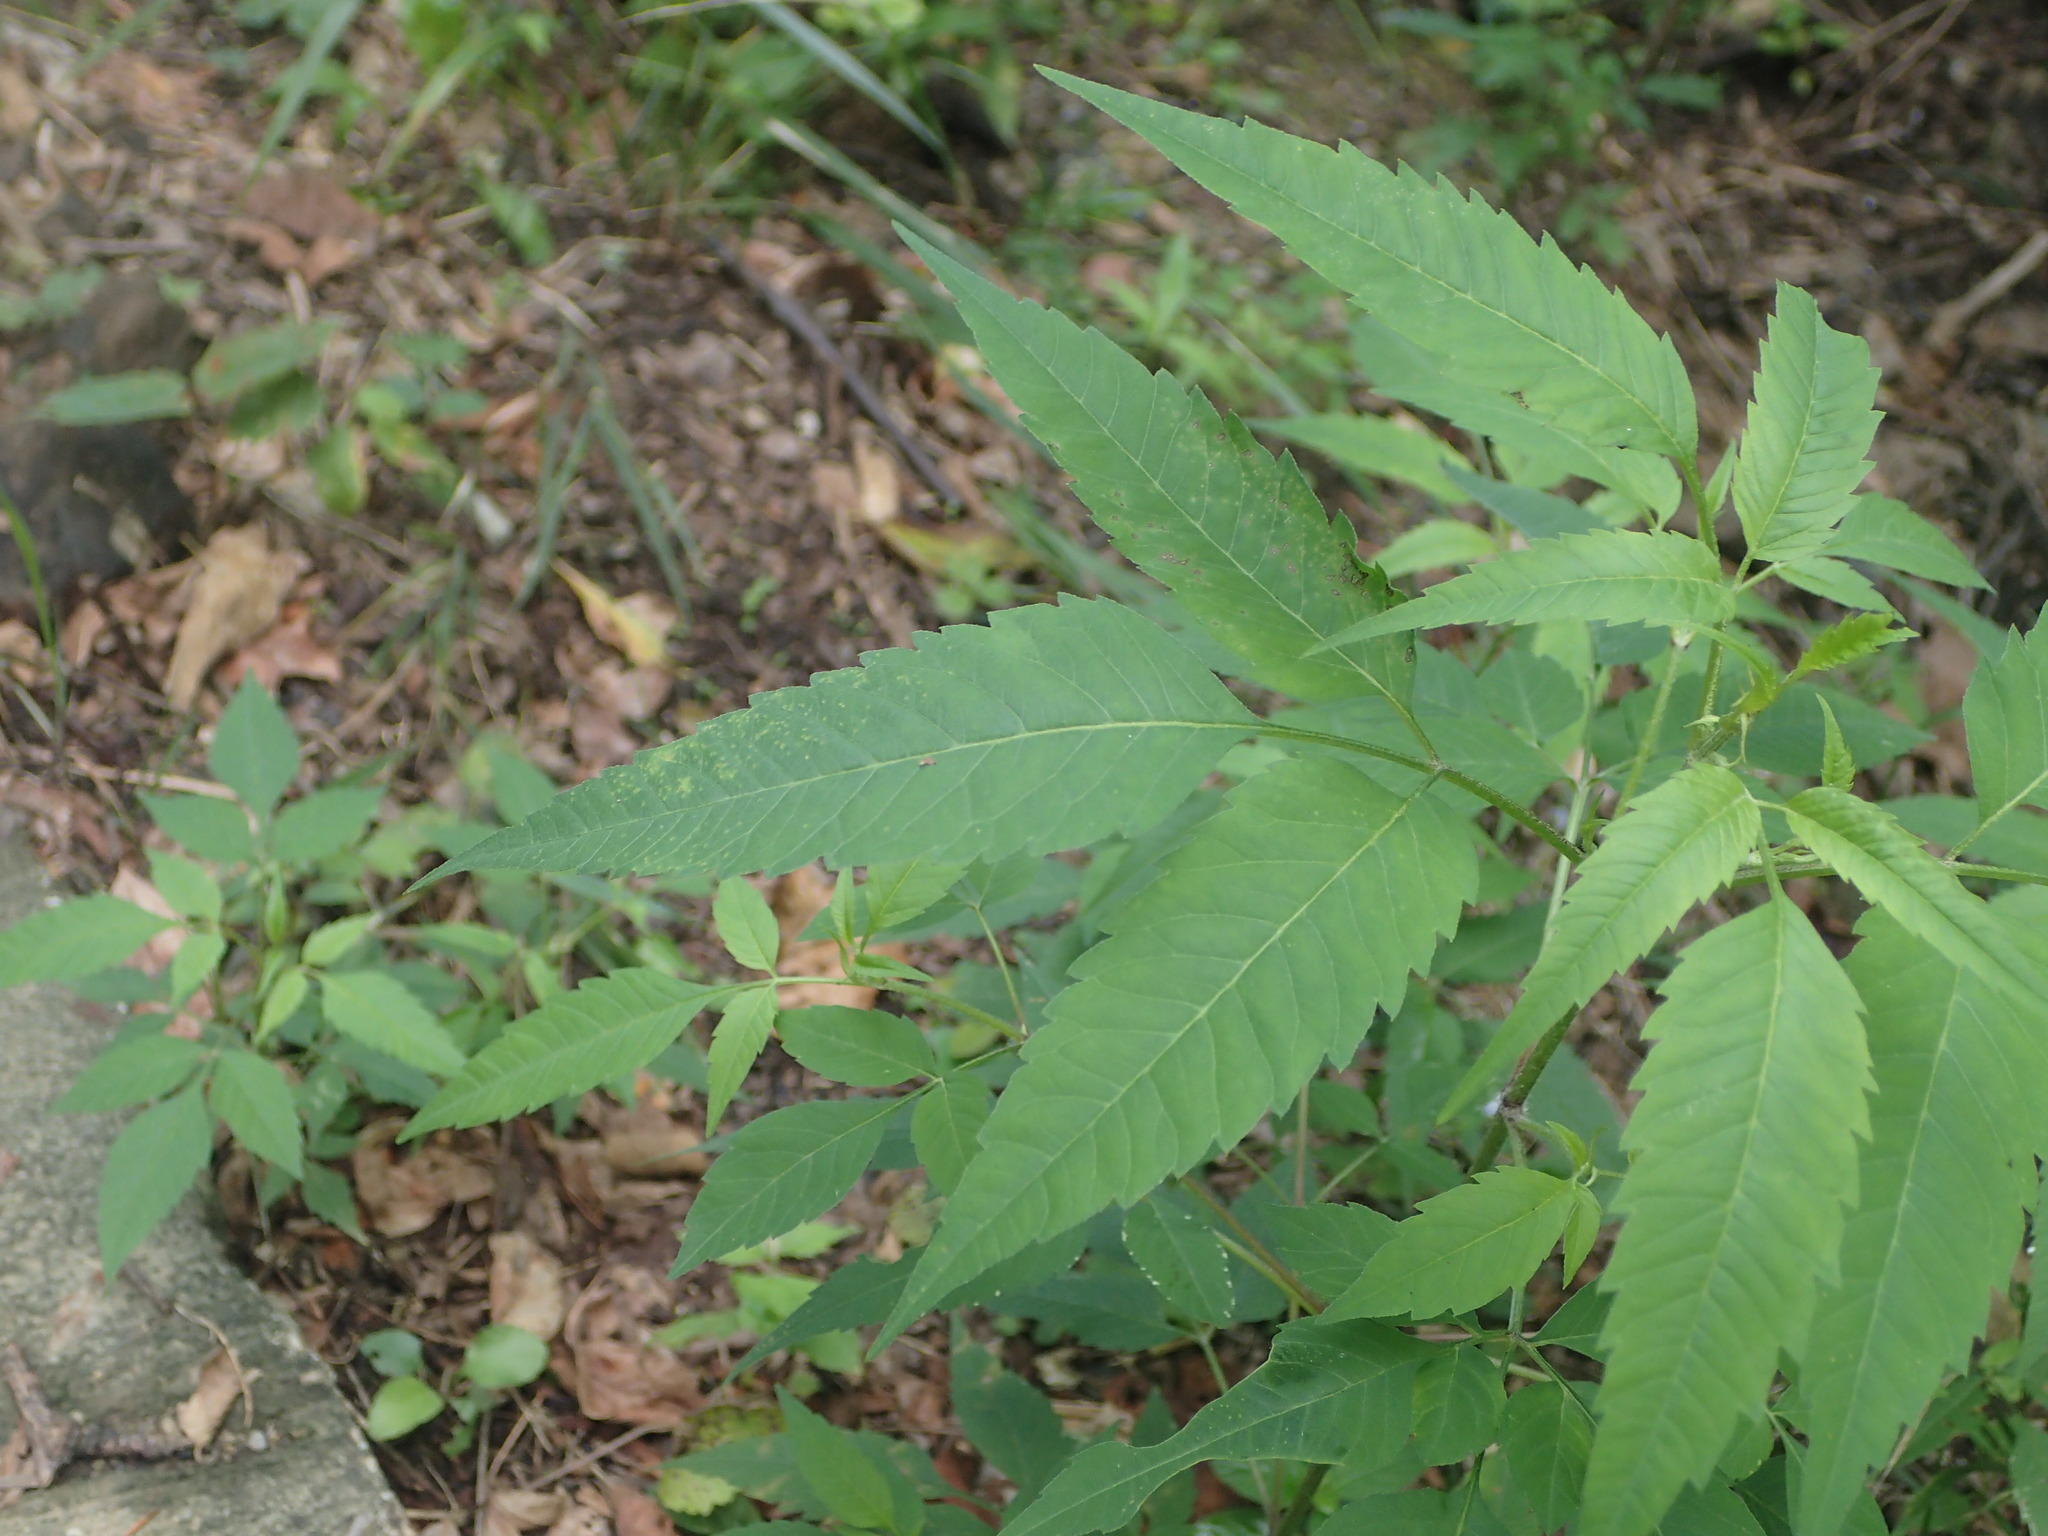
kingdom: Plantae
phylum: Tracheophyta
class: Magnoliopsida
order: Asterales
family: Asteraceae
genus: Bidens
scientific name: Bidens frondosa
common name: Beggarticks
